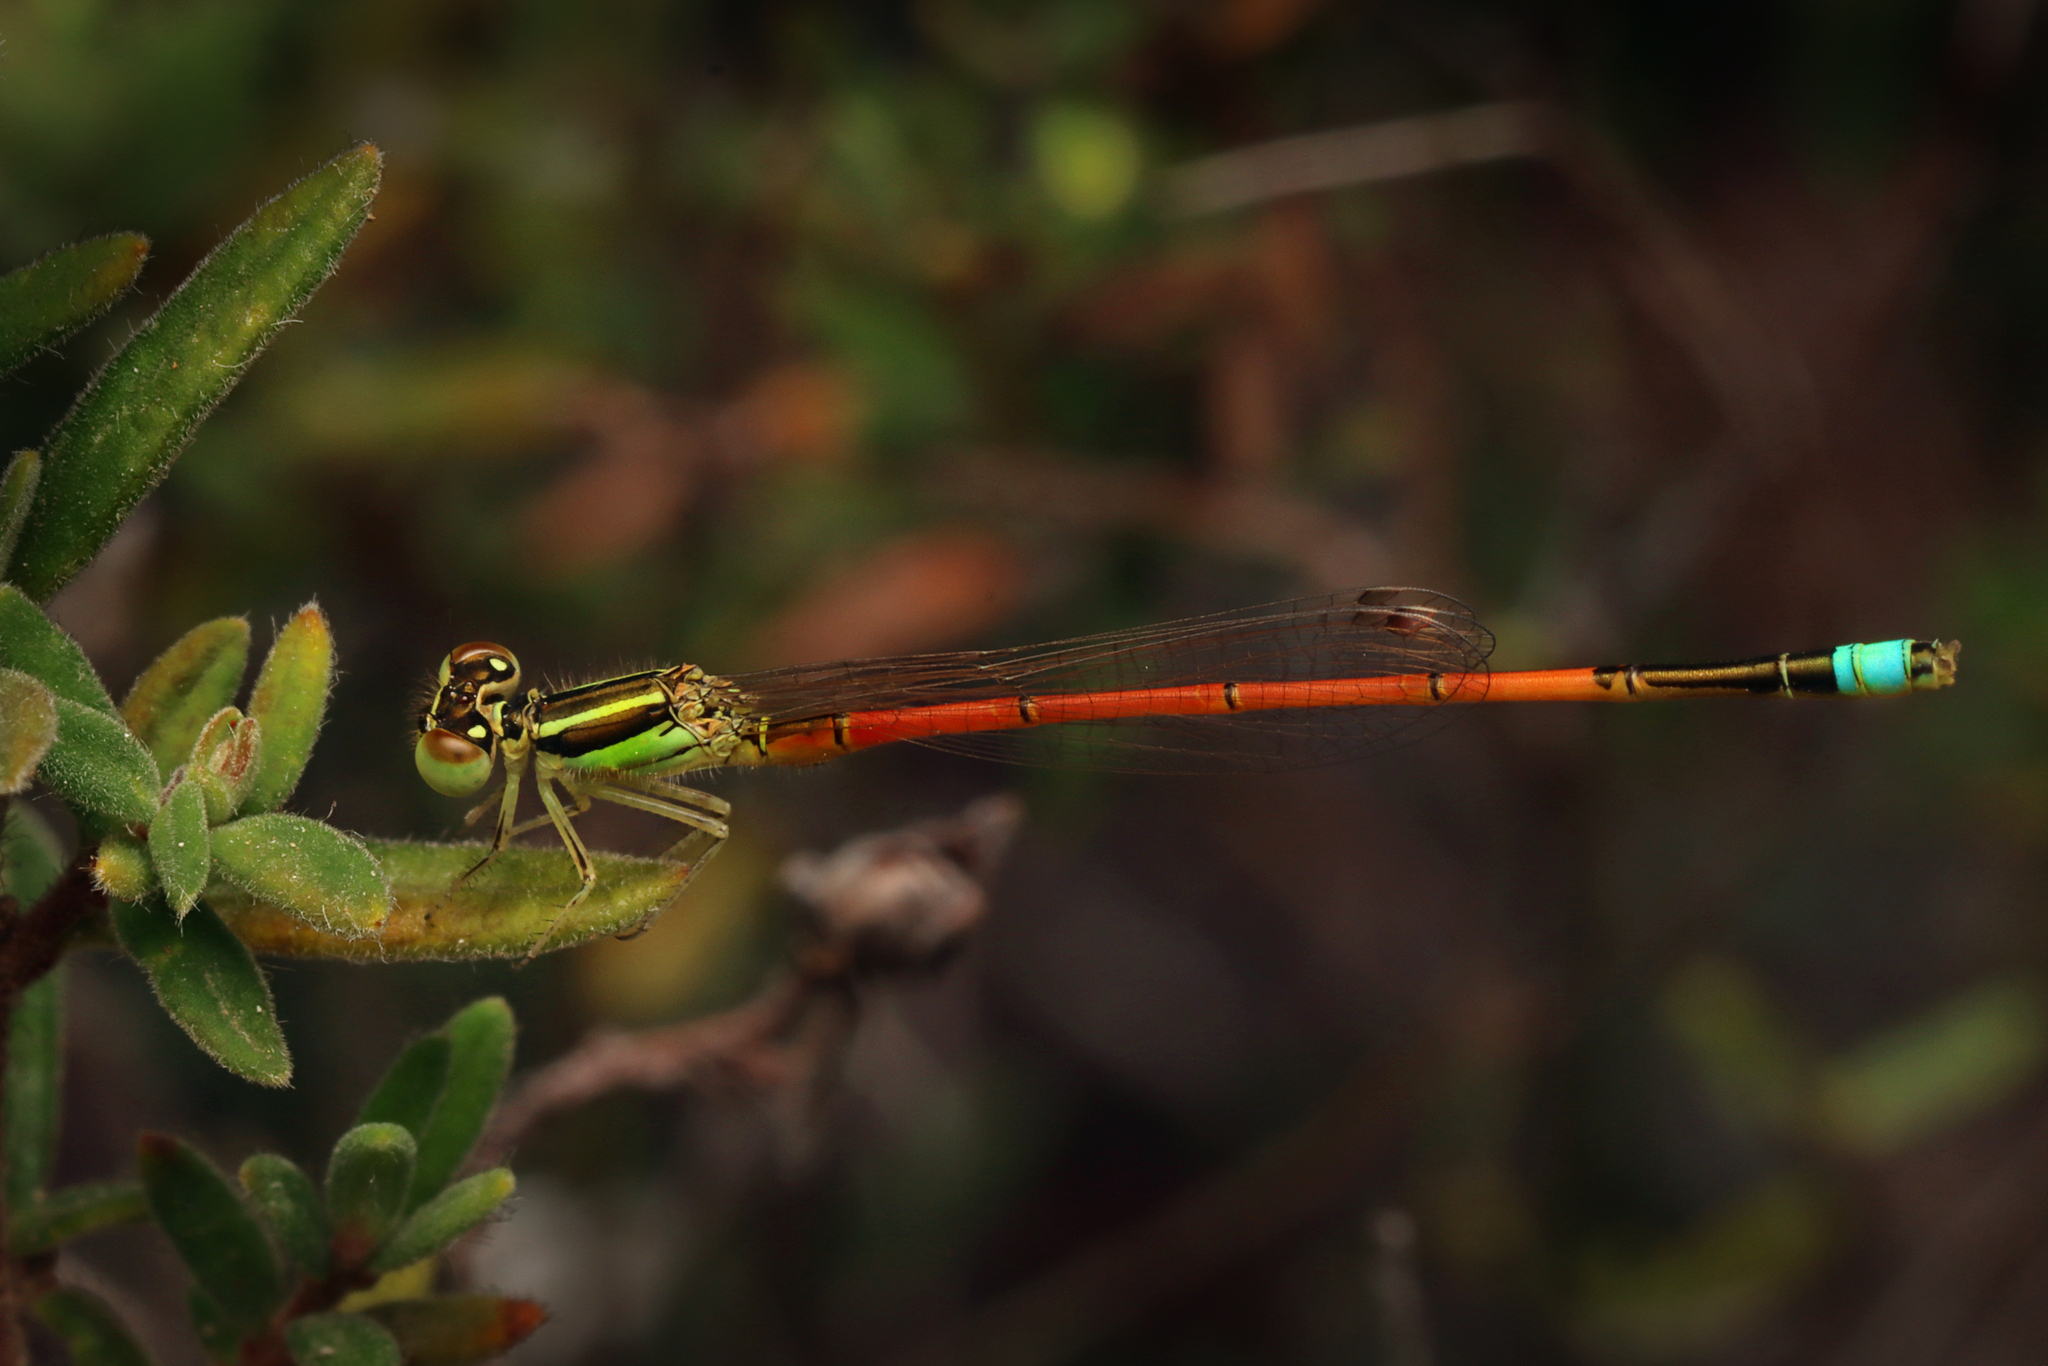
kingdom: Animalia
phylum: Arthropoda
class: Insecta
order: Odonata
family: Coenagrionidae
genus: Ischnura
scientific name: Ischnura aurora
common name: Gossamer damselfly
